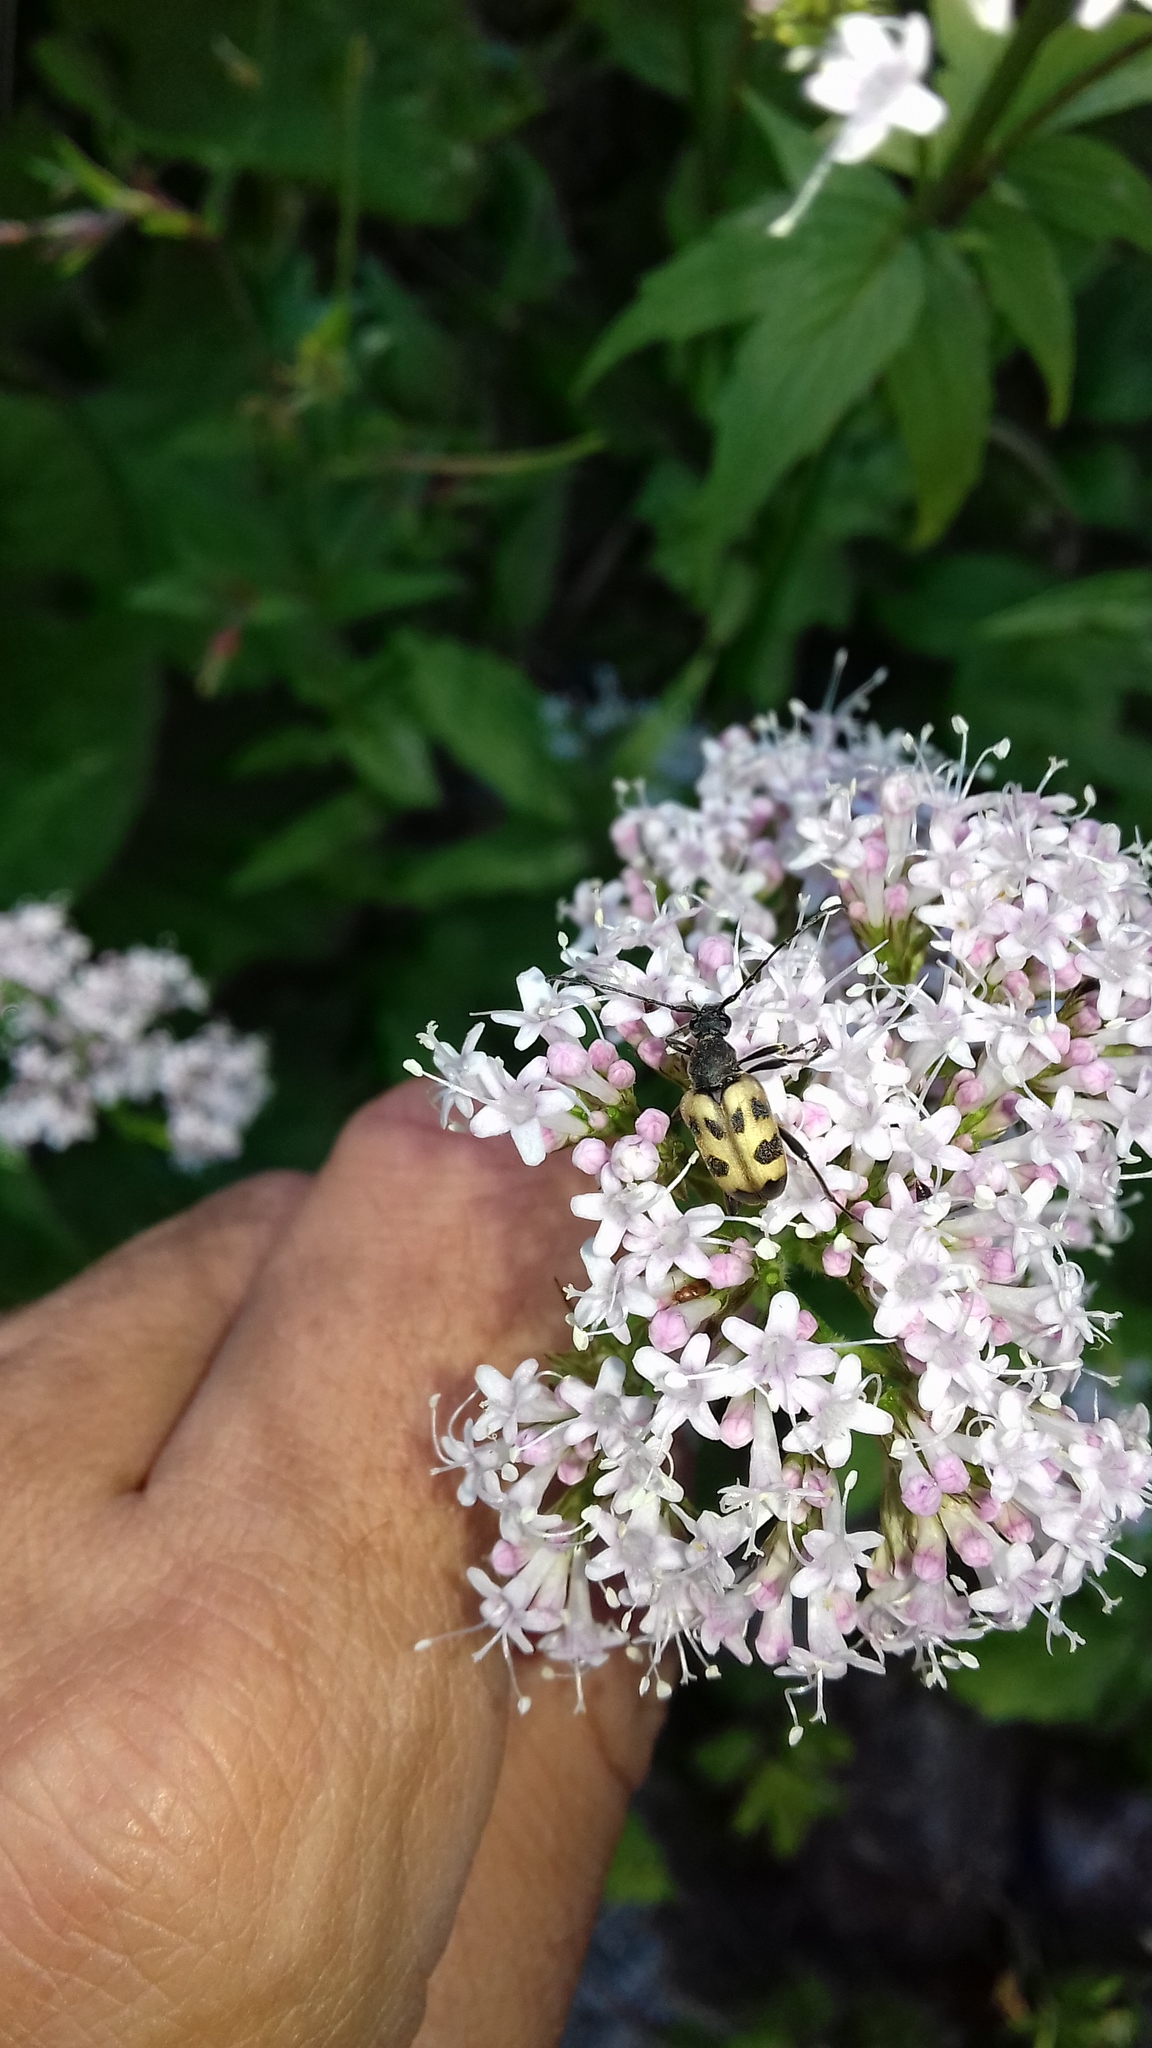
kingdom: Animalia
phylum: Arthropoda
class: Insecta
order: Coleoptera
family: Cerambycidae
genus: Pachytodes
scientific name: Pachytodes cerambyciformis
